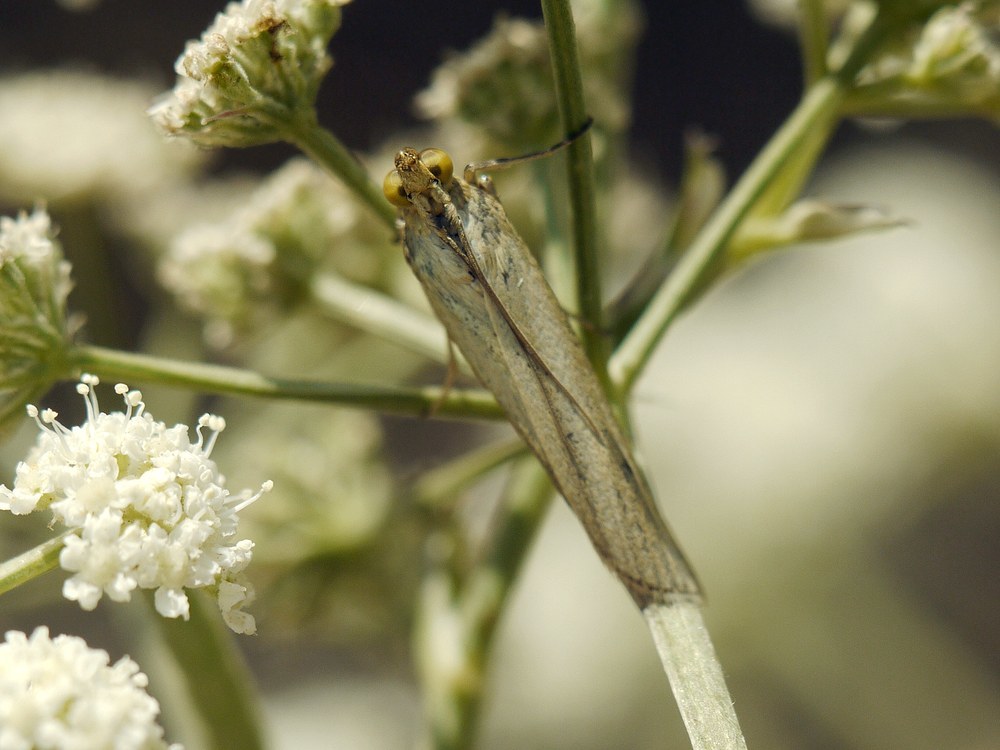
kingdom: Animalia
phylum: Arthropoda
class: Insecta
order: Lepidoptera
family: Pyralidae
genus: Selagia
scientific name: Selagia argyrella
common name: Silvery knot-horn
